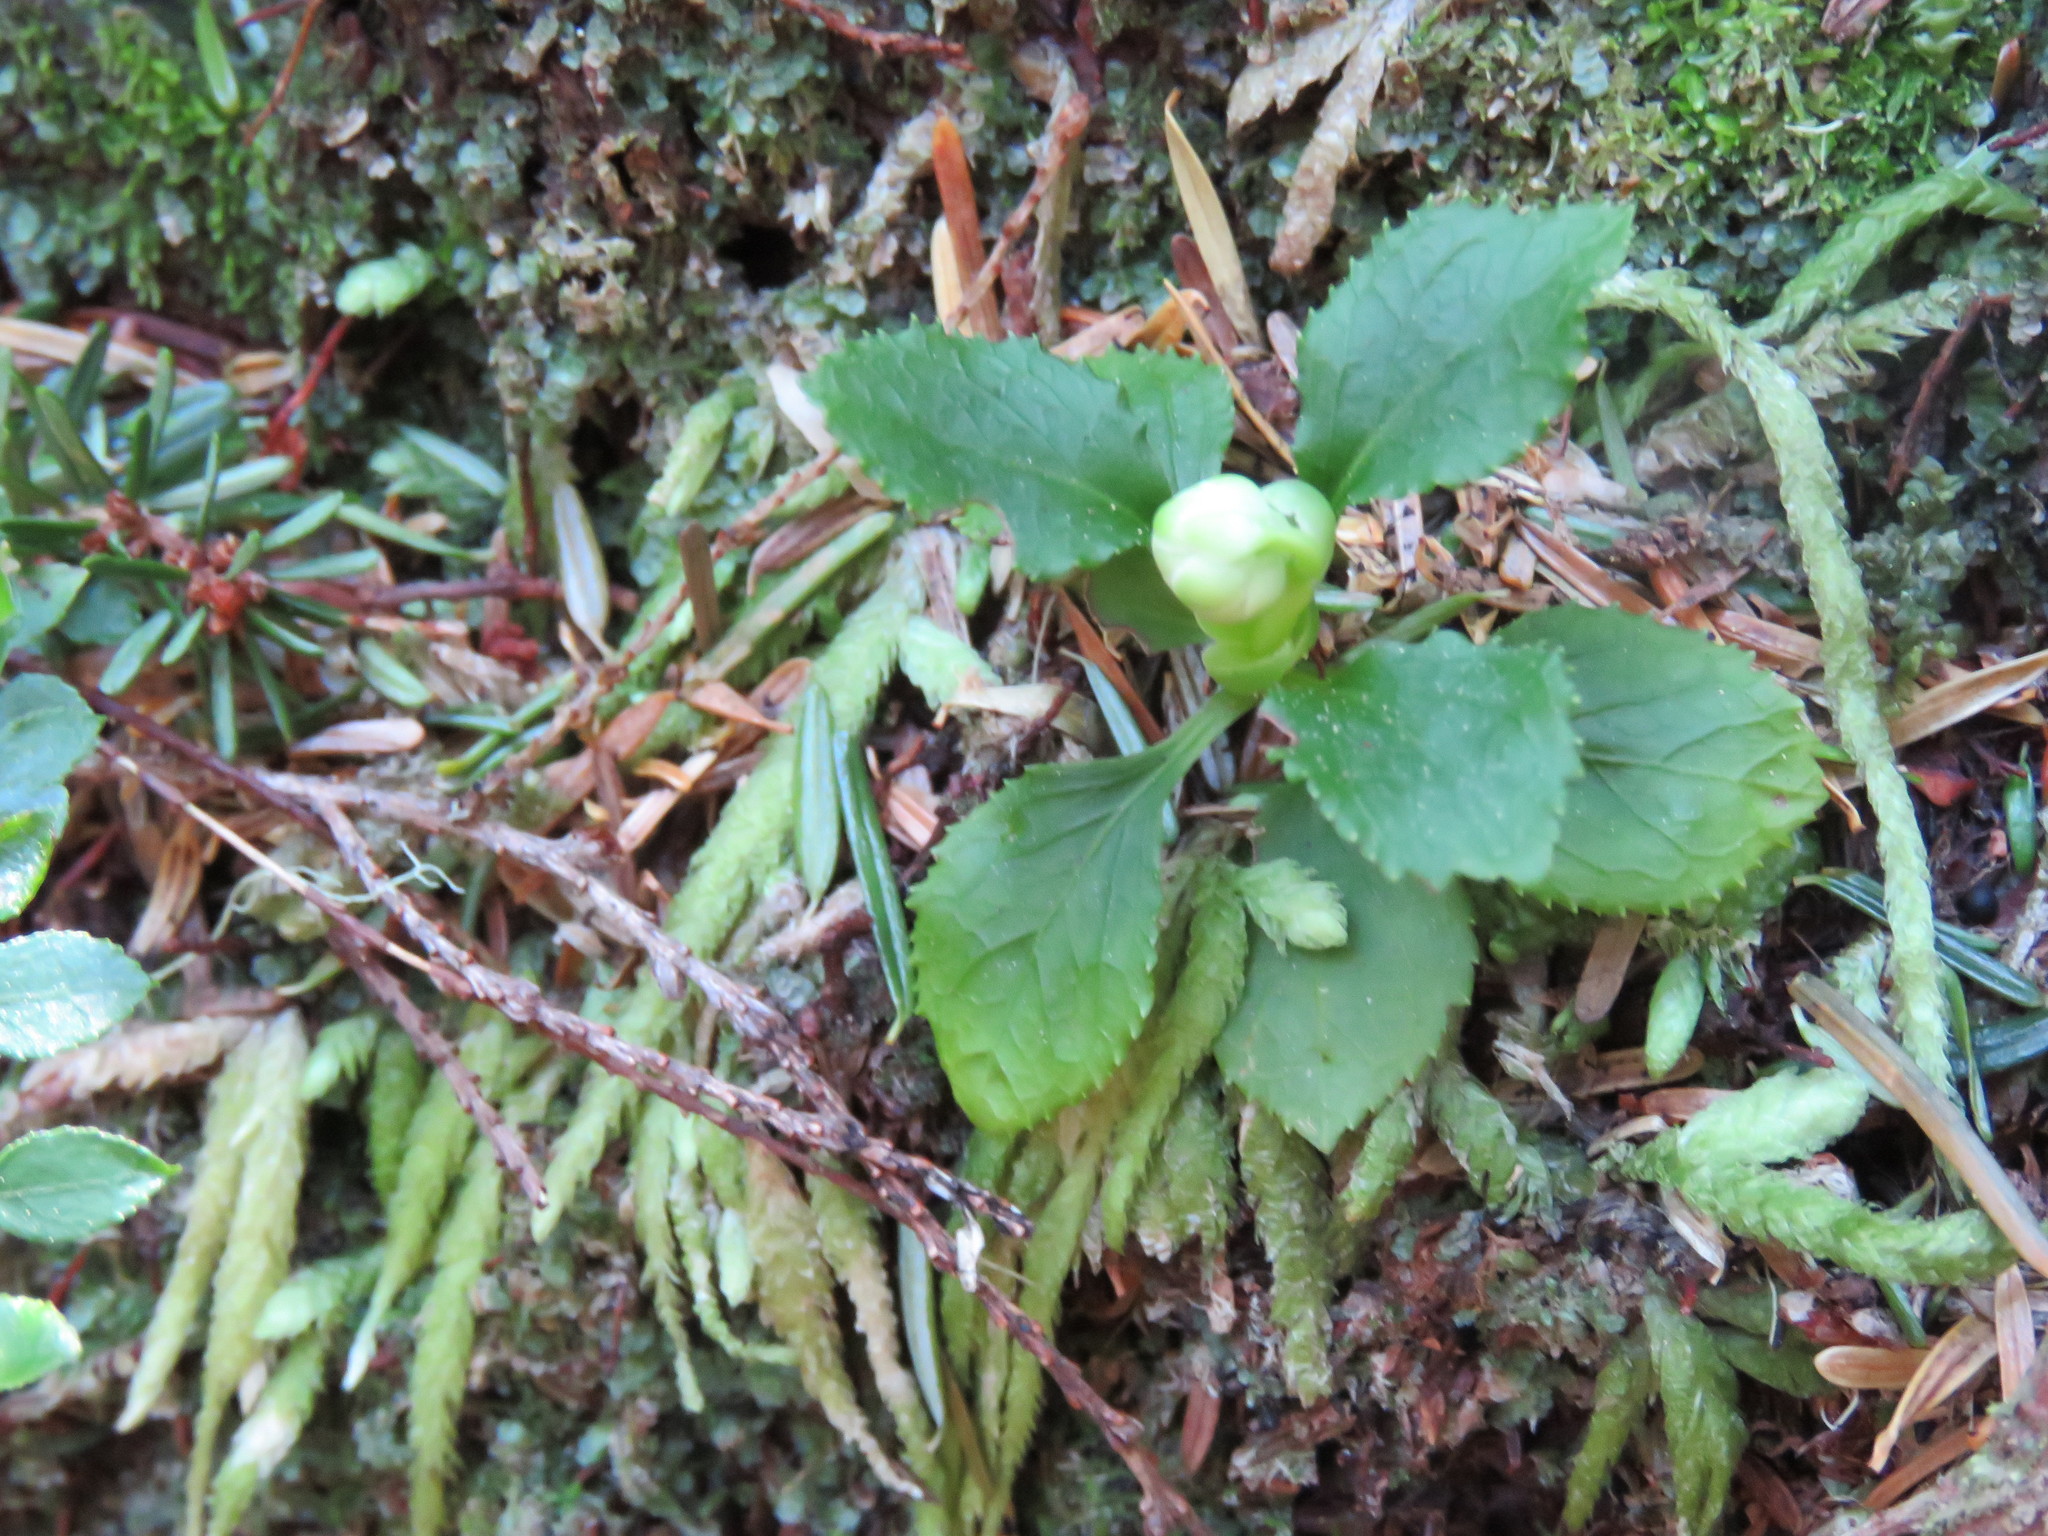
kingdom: Plantae
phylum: Tracheophyta
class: Magnoliopsida
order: Ericales
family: Ericaceae
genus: Moneses
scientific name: Moneses uniflora
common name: One-flowered wintergreen
